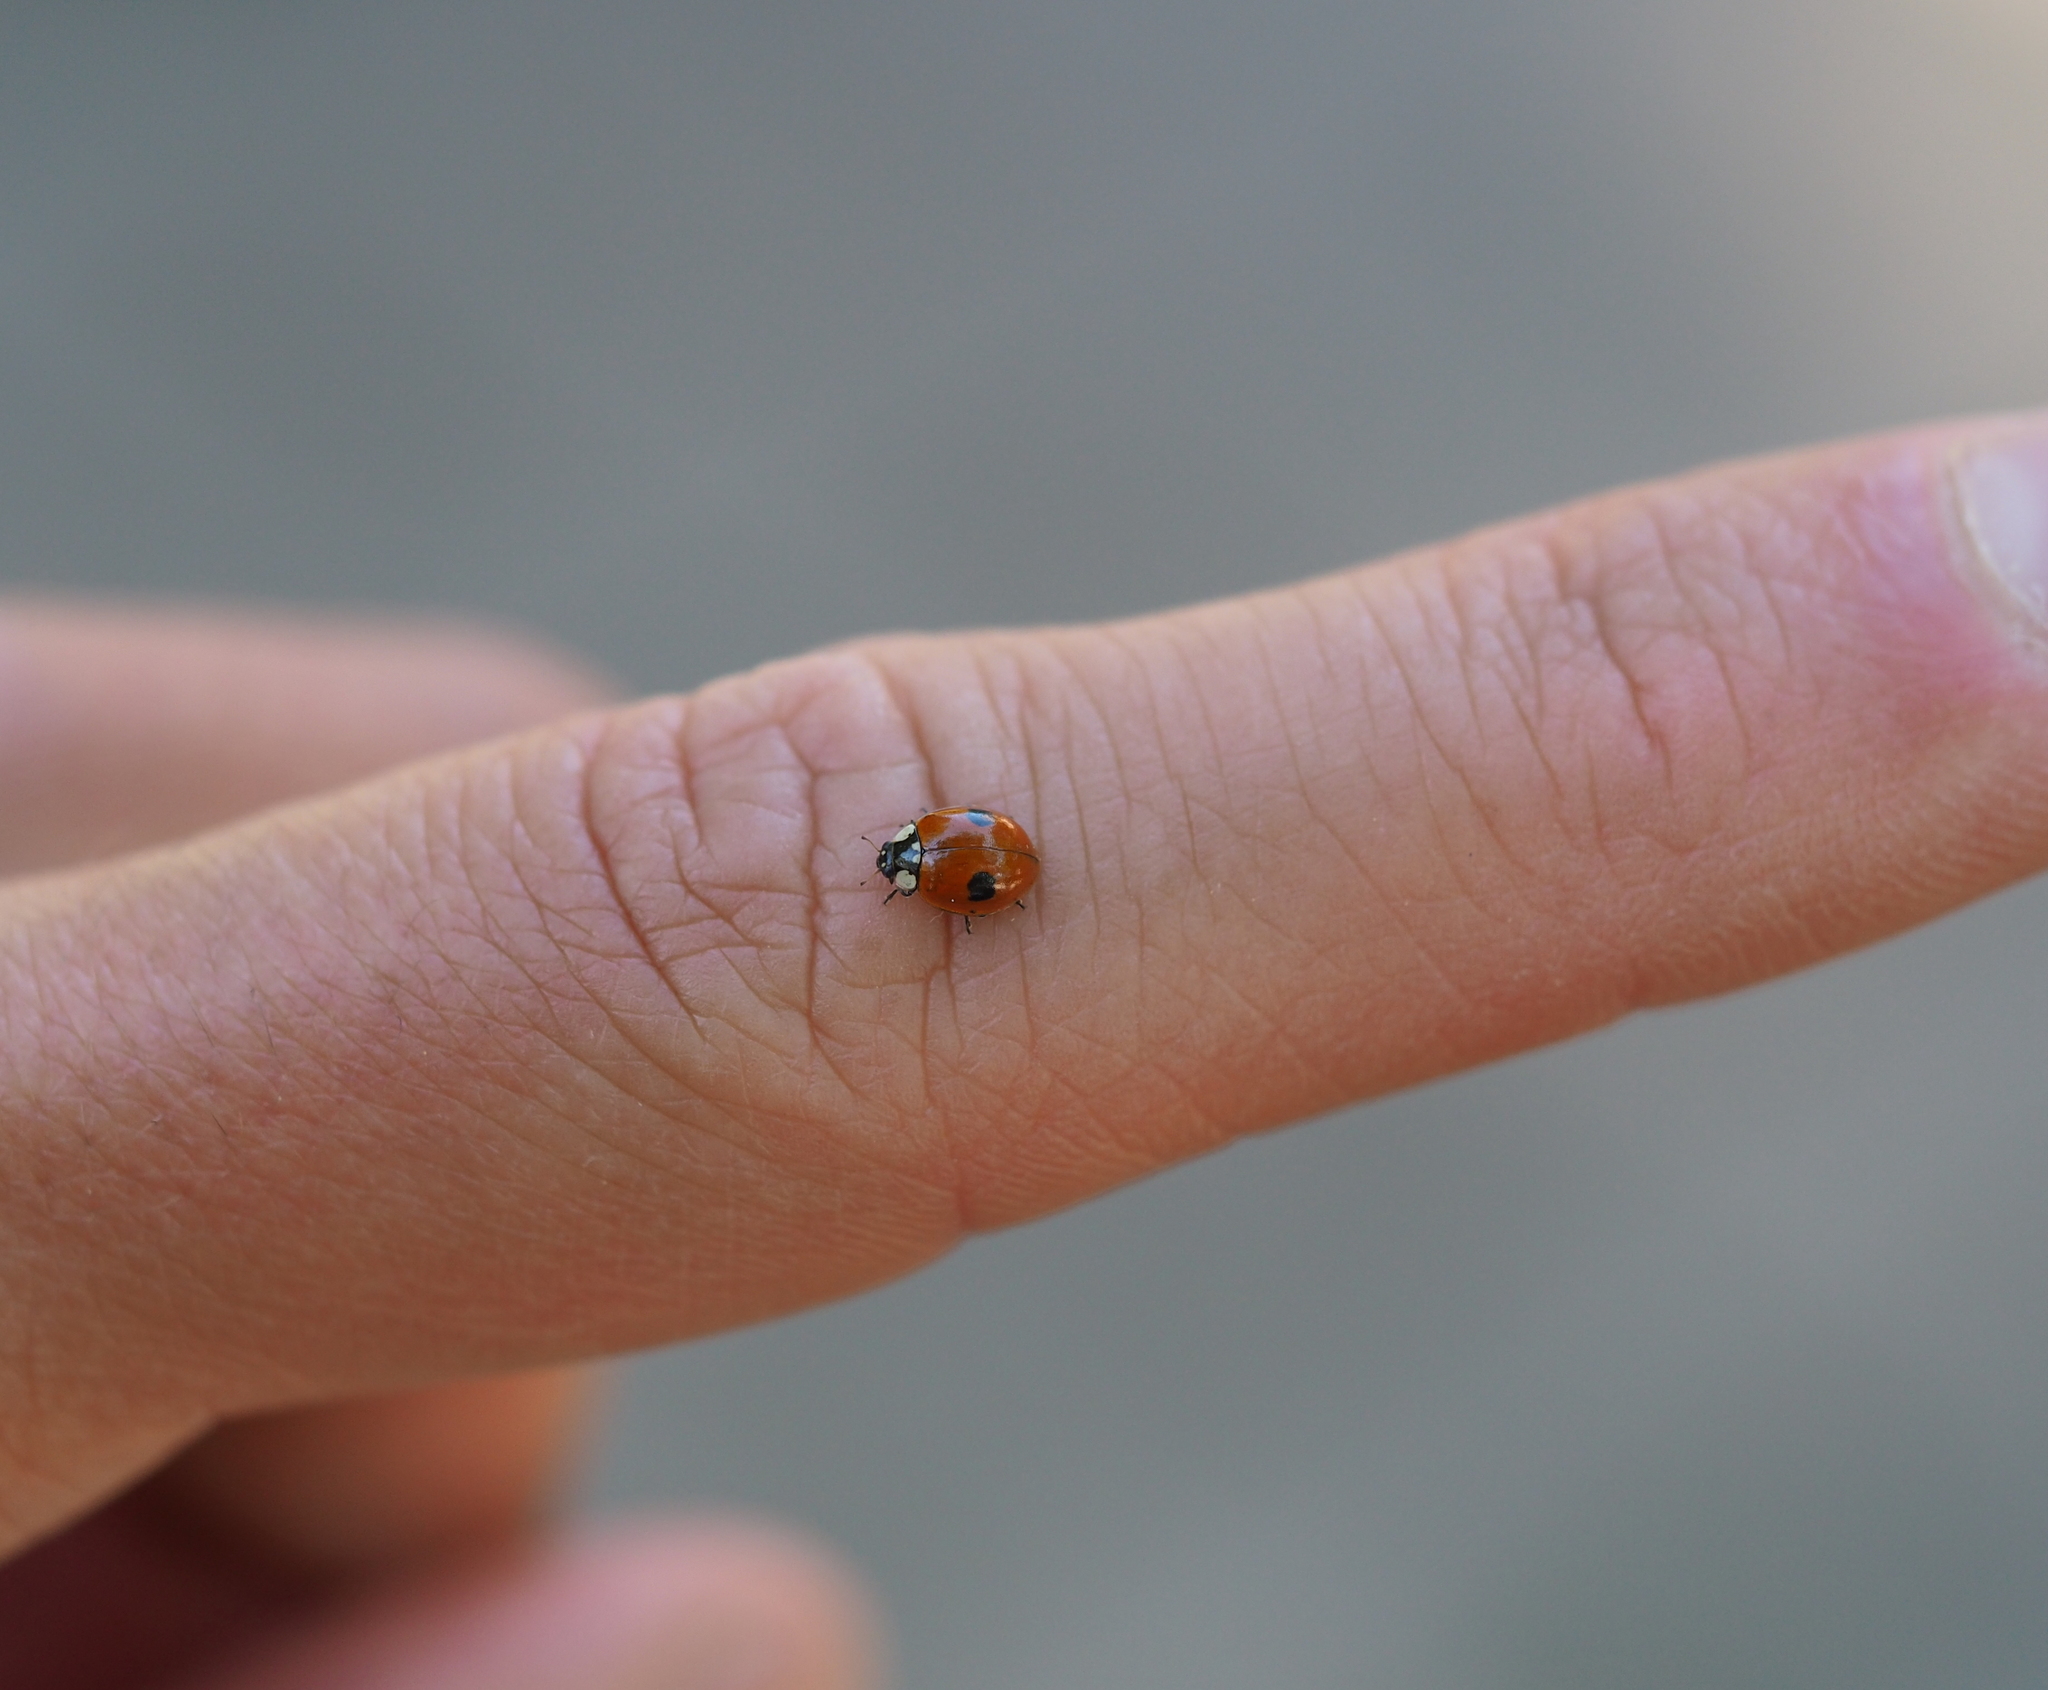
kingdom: Animalia
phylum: Arthropoda
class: Insecta
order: Coleoptera
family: Coccinellidae
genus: Adalia
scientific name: Adalia bipunctata
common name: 2-spot ladybird
